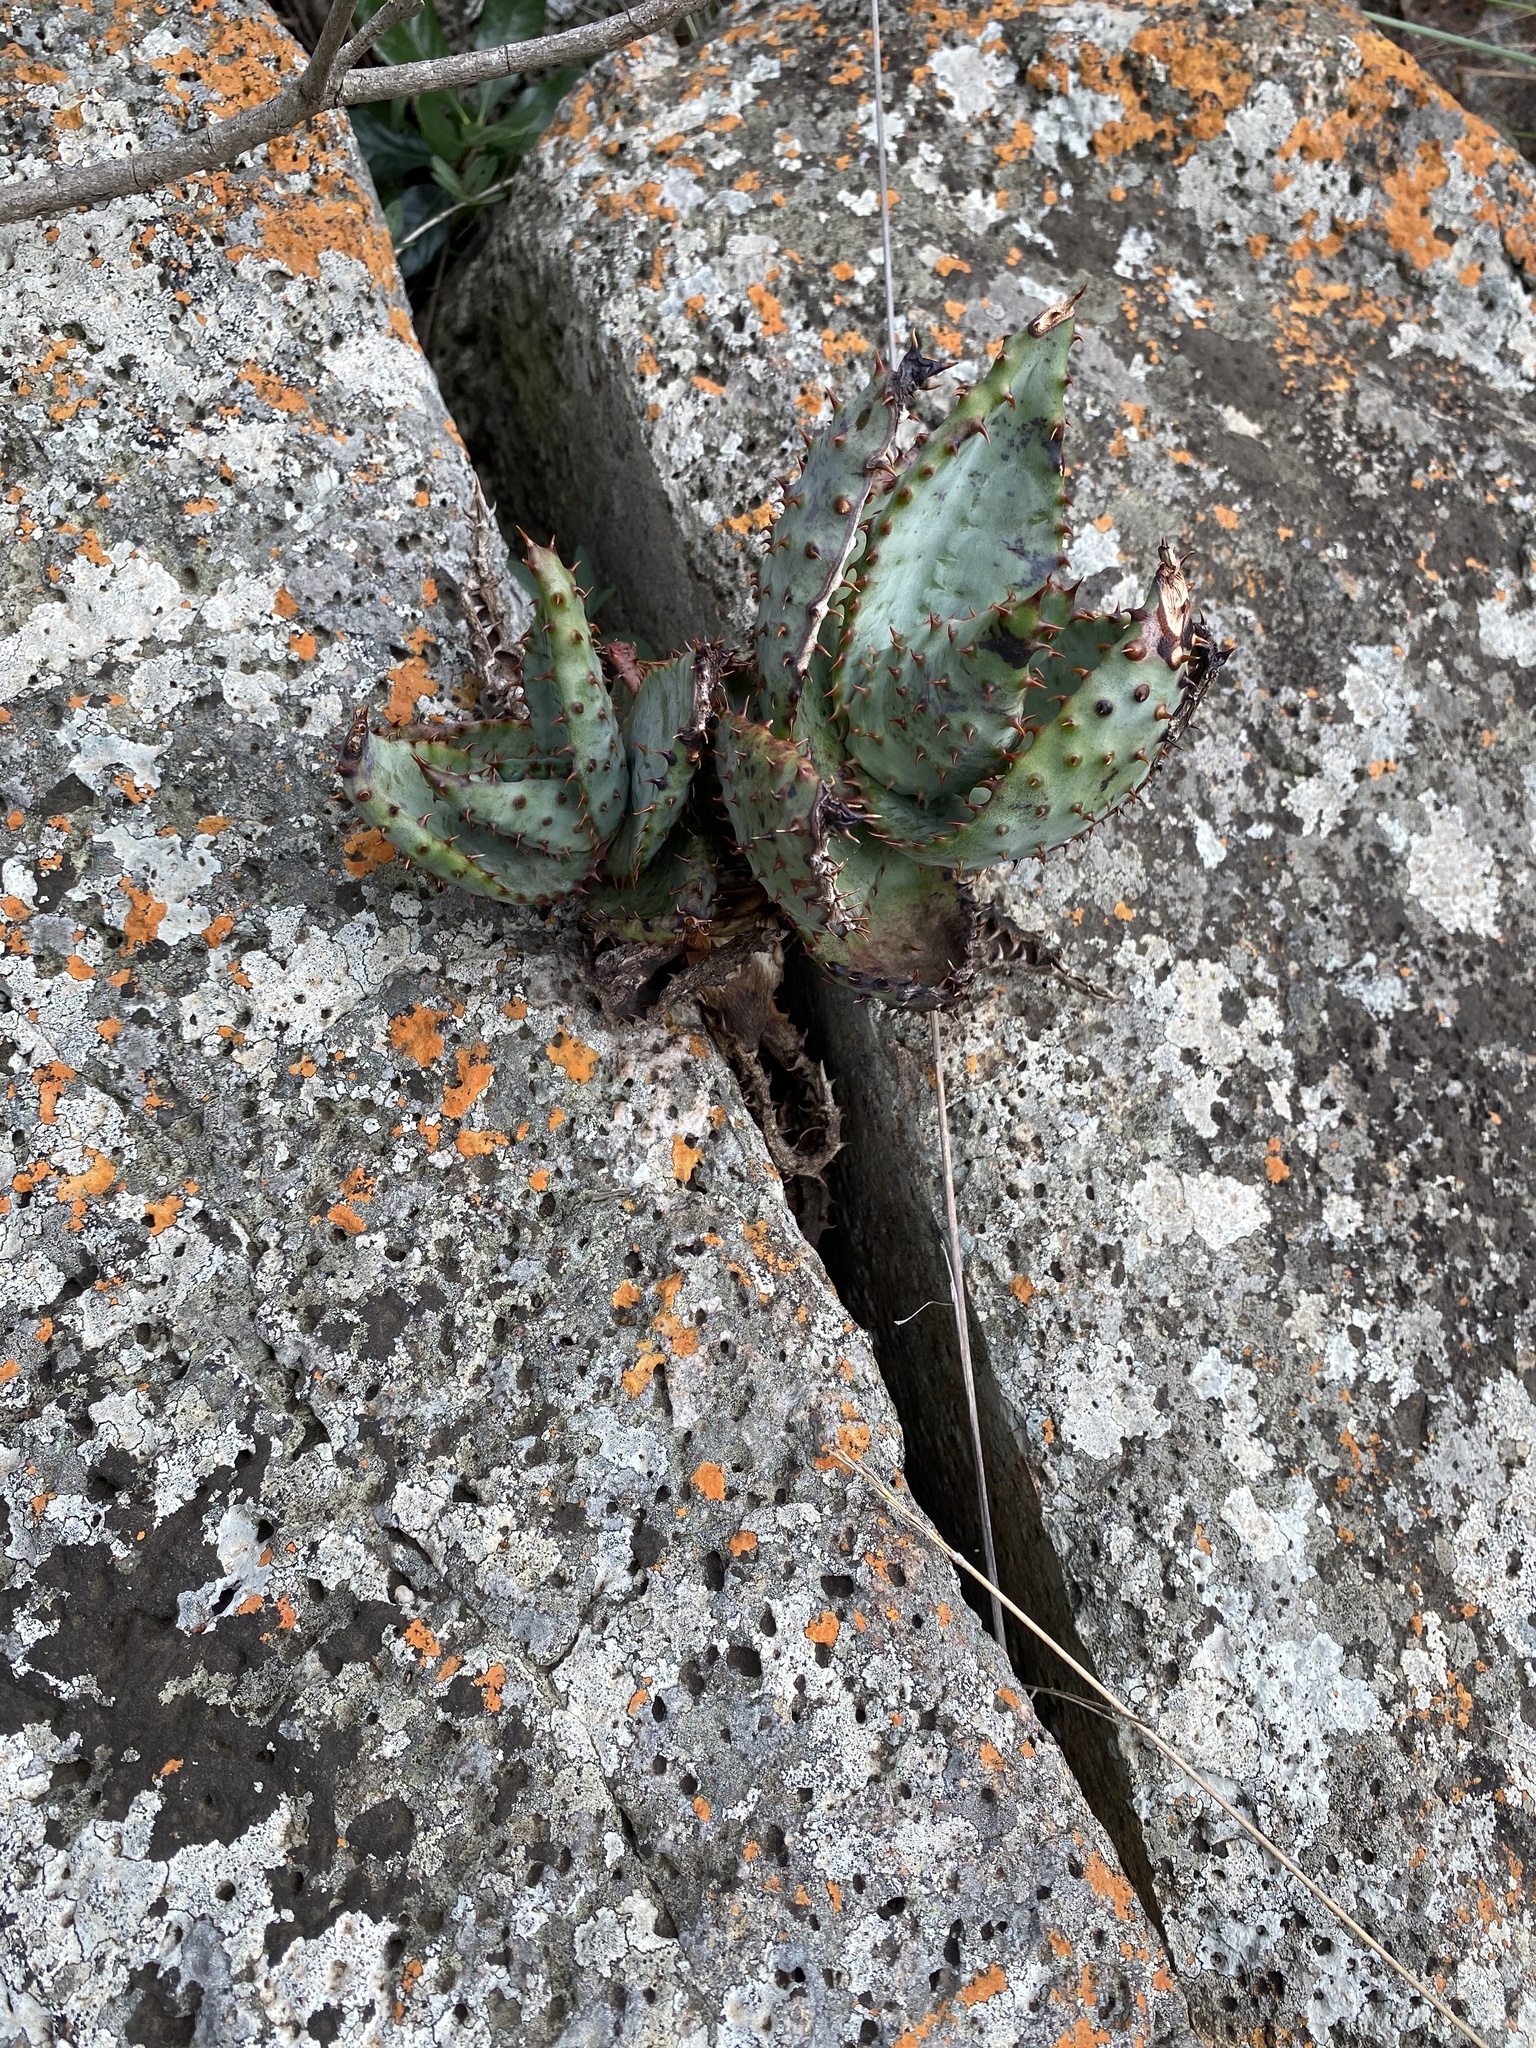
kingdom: Plantae
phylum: Tracheophyta
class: Liliopsida
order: Asparagales
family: Asphodelaceae
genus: Aloe
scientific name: Aloe marlothii
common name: Flat-flowered aloe
